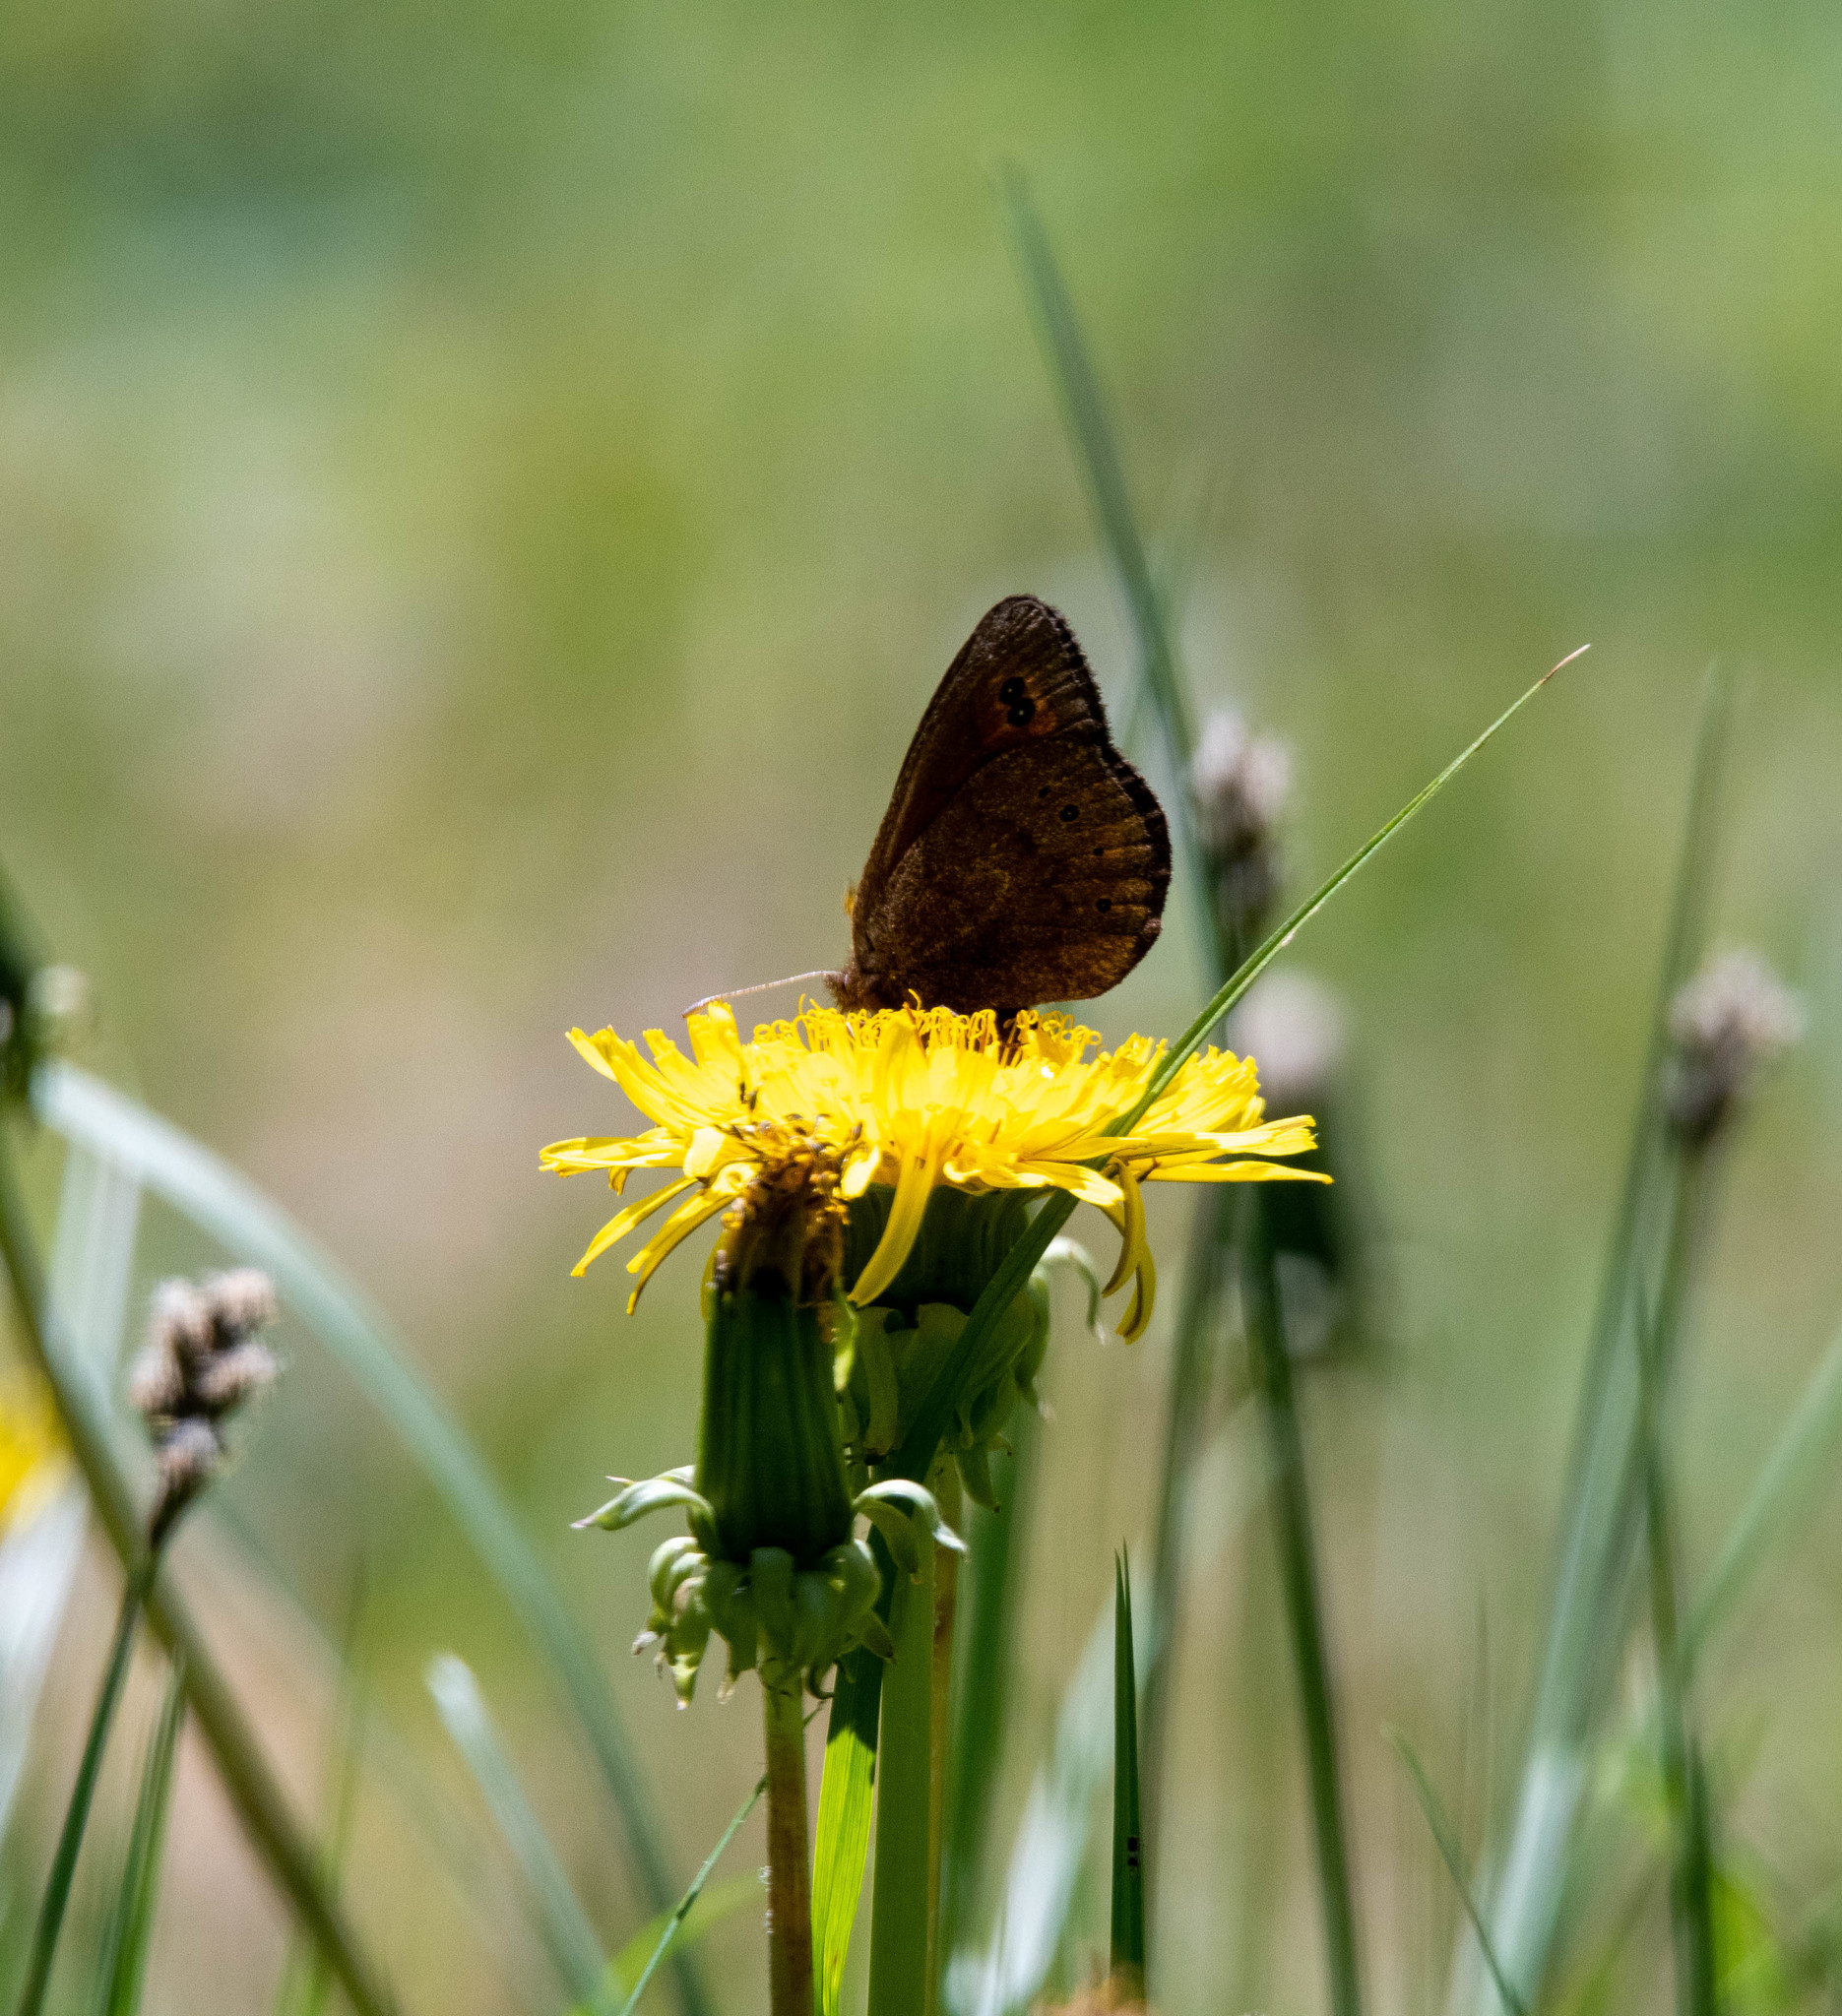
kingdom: Animalia
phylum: Arthropoda
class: Insecta
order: Lepidoptera
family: Nymphalidae
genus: Erebia
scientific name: Erebia epipsodea
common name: Common alpine
